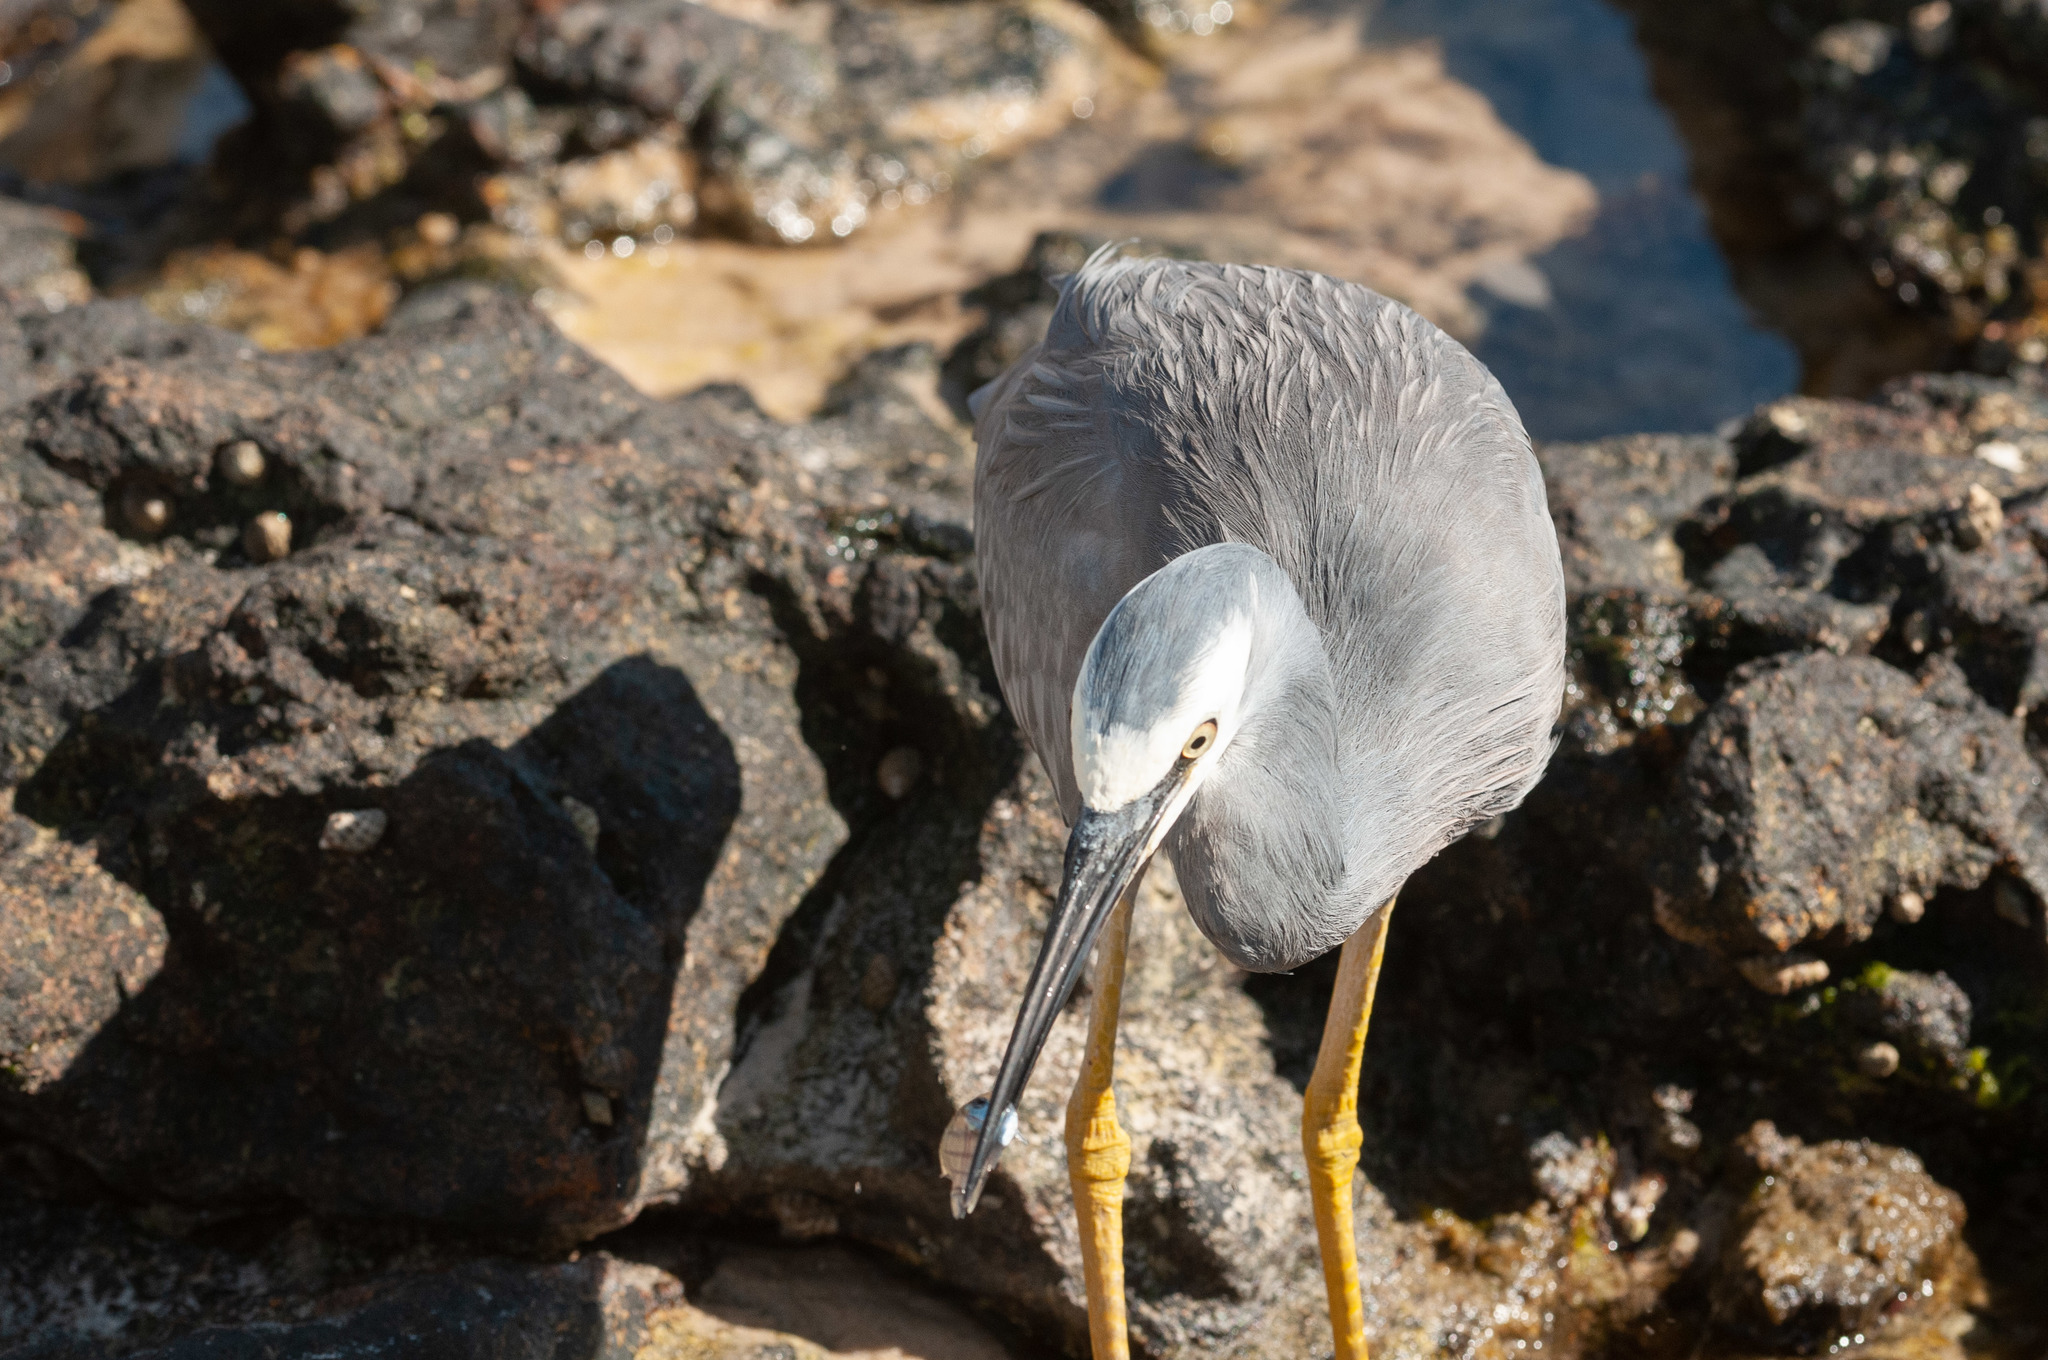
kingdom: Animalia
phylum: Chordata
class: Aves
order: Pelecaniformes
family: Ardeidae
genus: Egretta
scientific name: Egretta novaehollandiae
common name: White-faced heron
